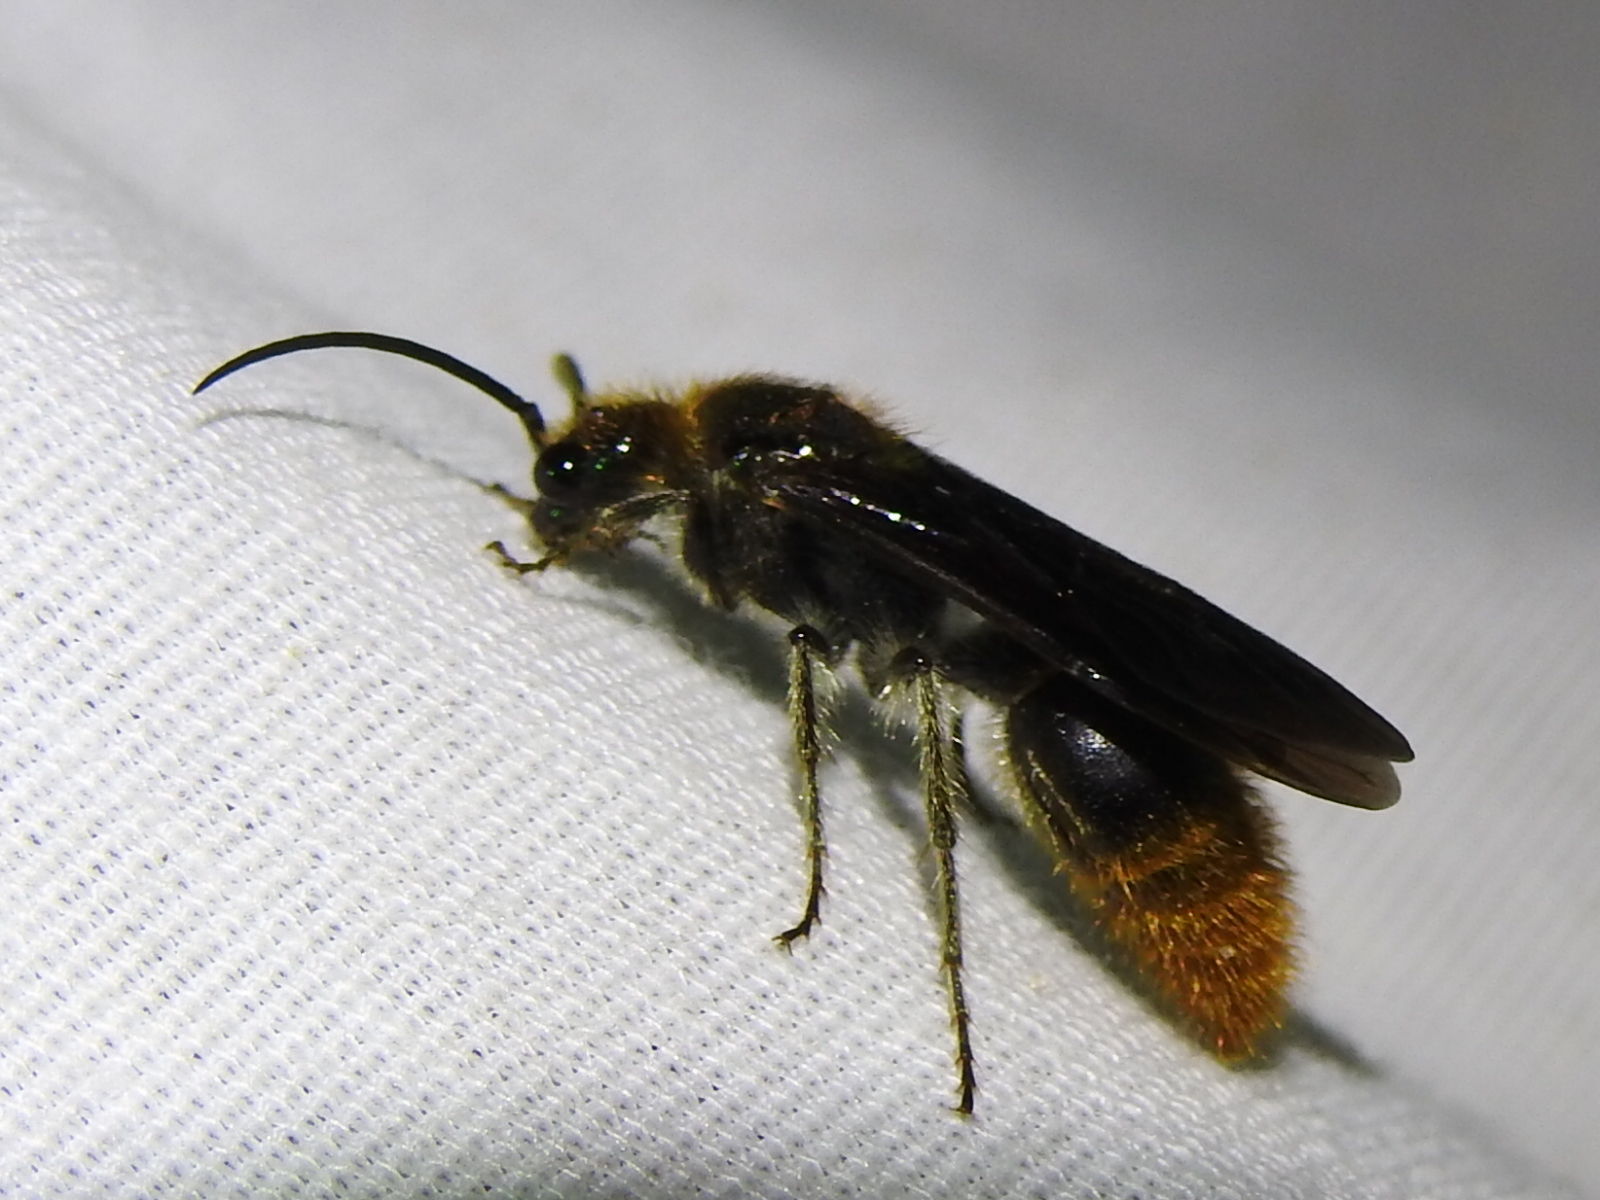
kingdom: Animalia
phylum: Arthropoda
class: Insecta
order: Hymenoptera
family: Mutillidae
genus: Sphaeropthalma
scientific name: Sphaeropthalma marpesia
